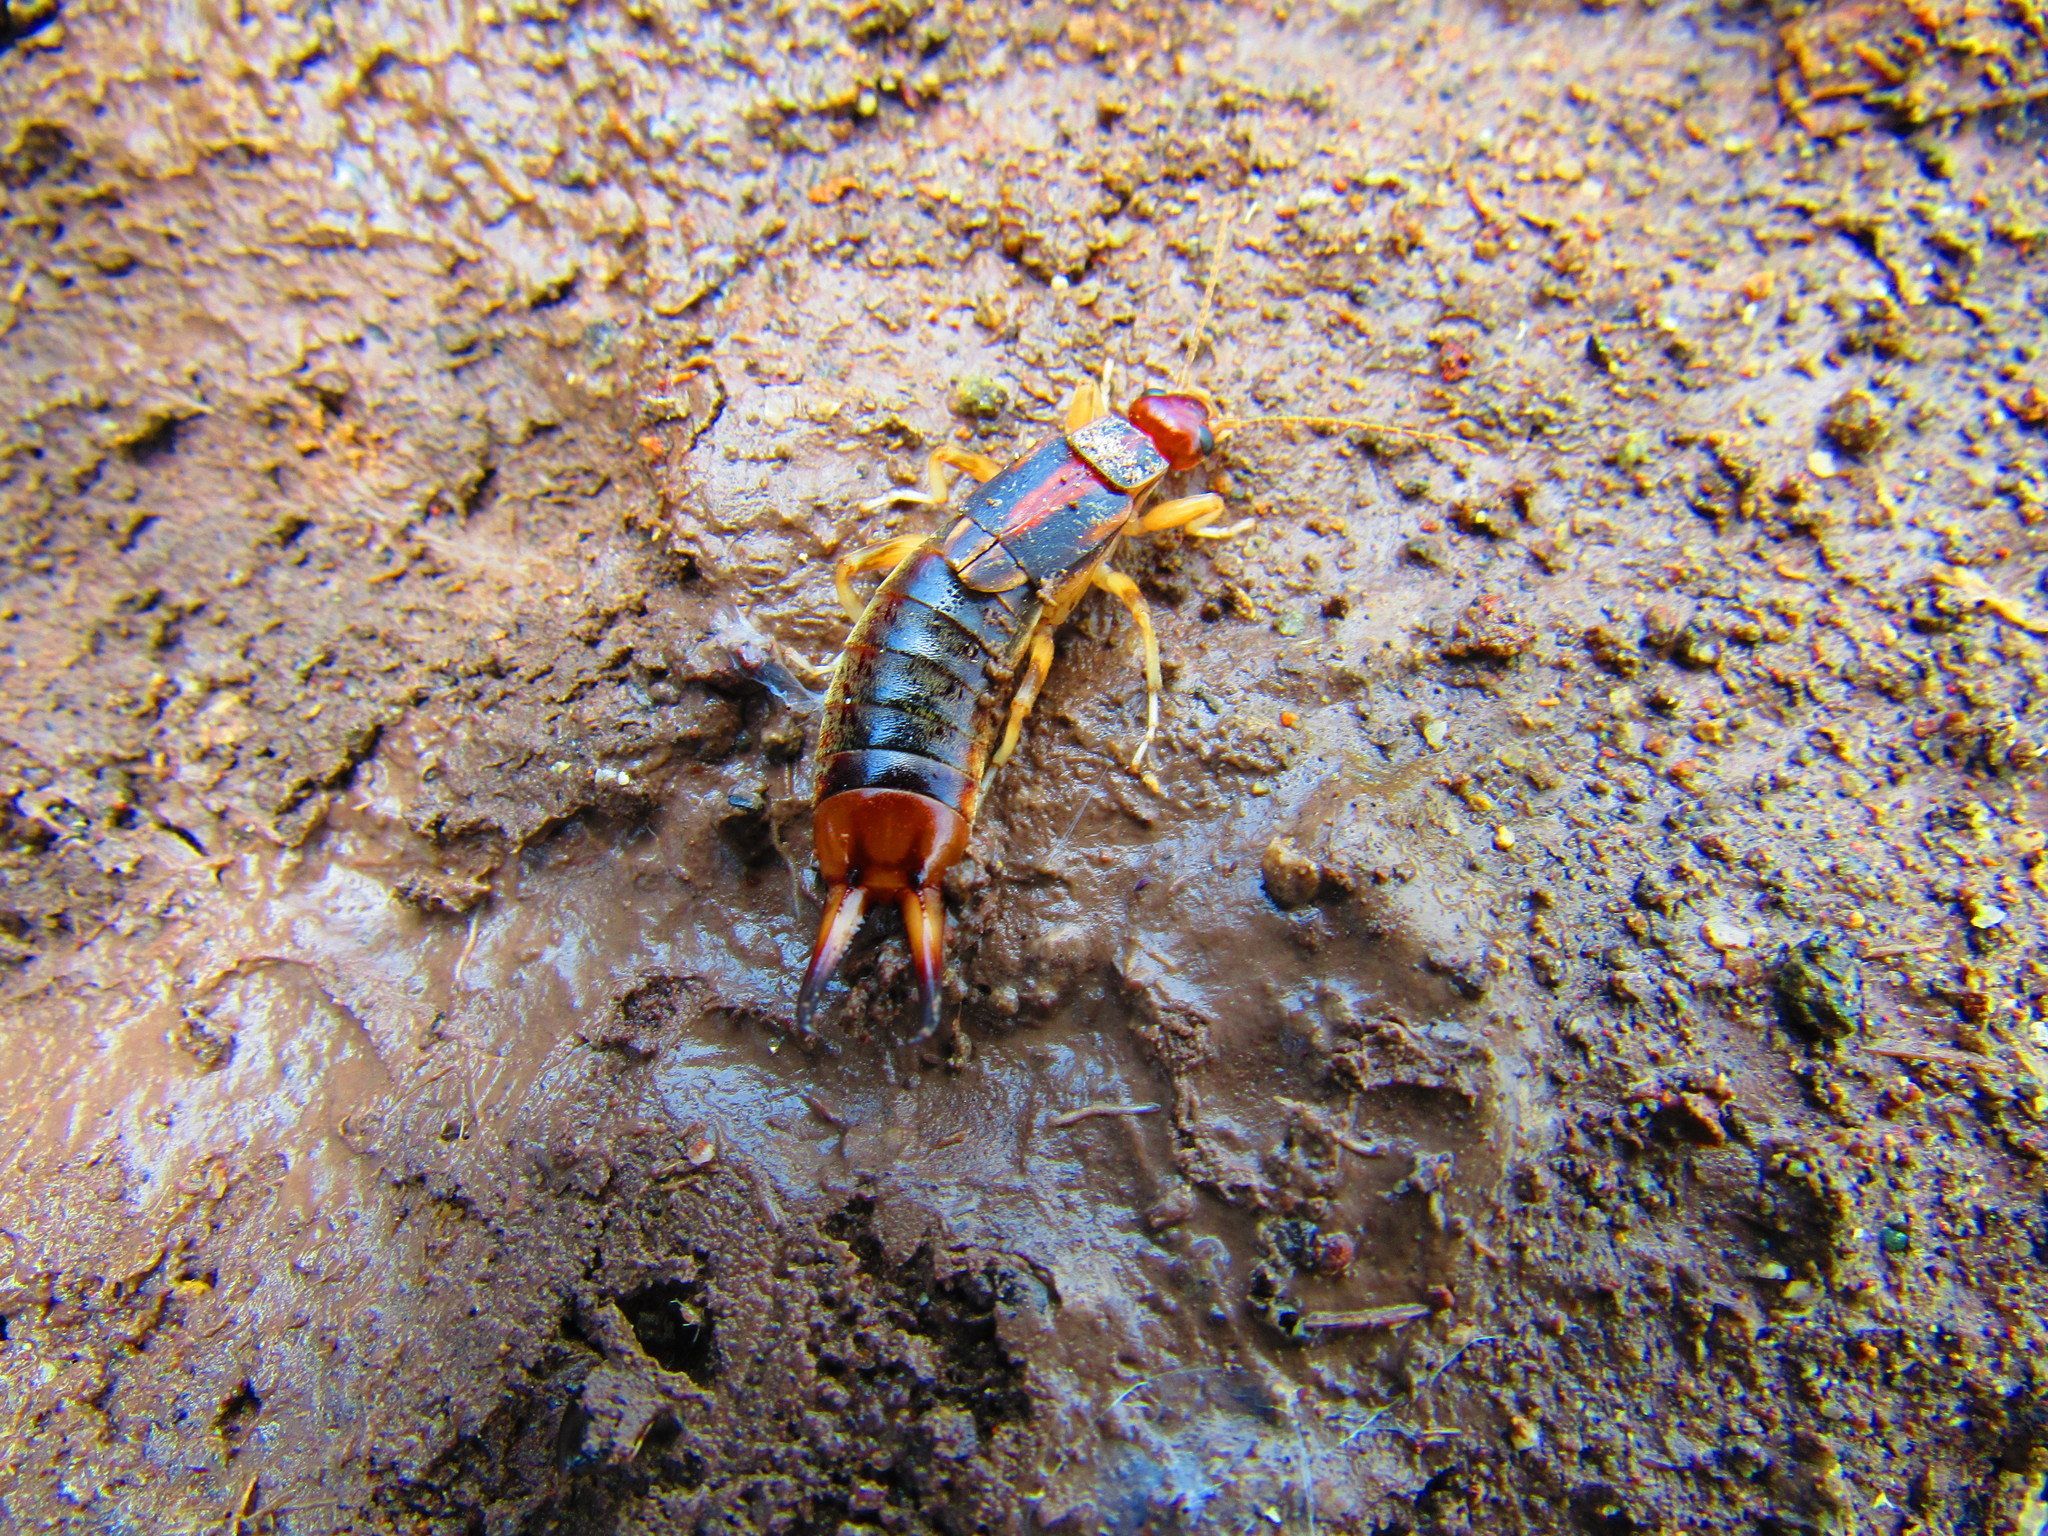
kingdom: Animalia
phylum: Arthropoda
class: Insecta
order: Dermaptera
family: Labiduridae
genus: Labidura
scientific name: Labidura riparia
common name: Striped earwig
